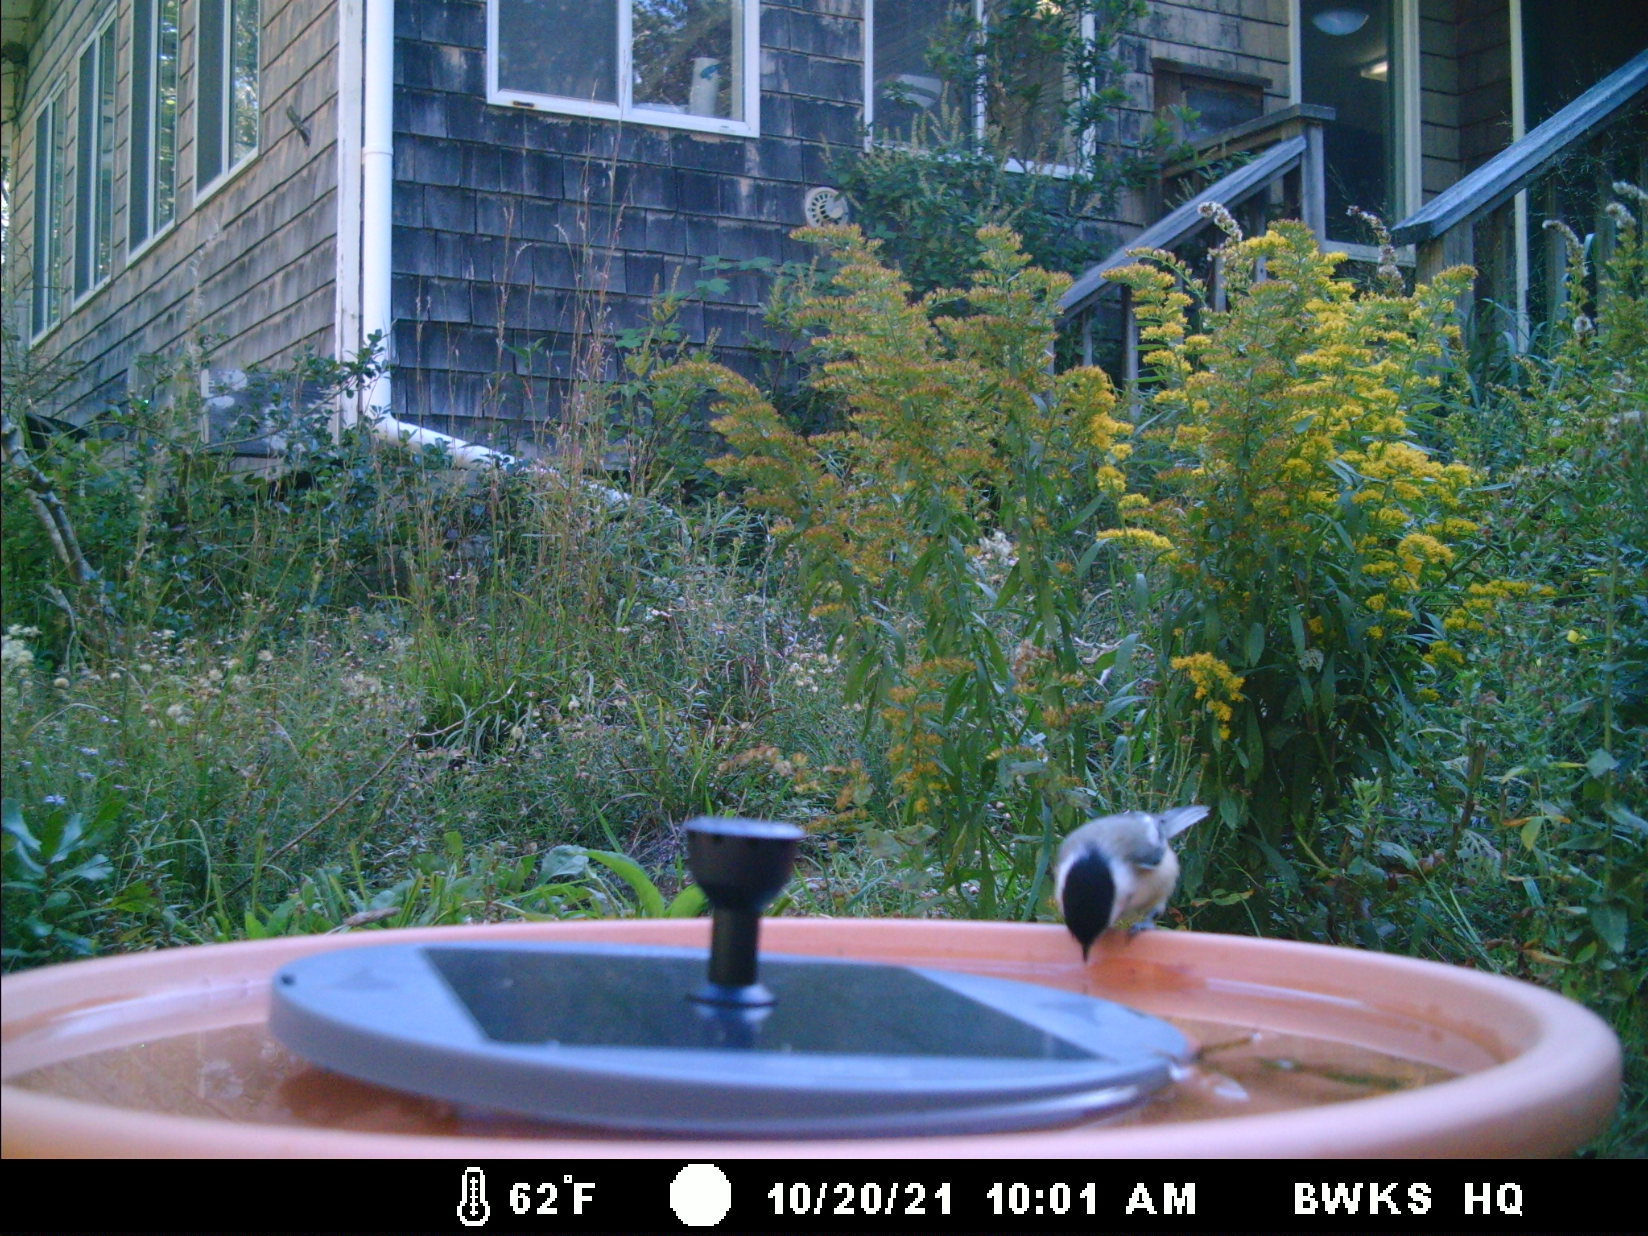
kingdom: Animalia
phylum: Chordata
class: Aves
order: Passeriformes
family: Paridae
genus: Poecile
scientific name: Poecile atricapillus
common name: Black-capped chickadee
